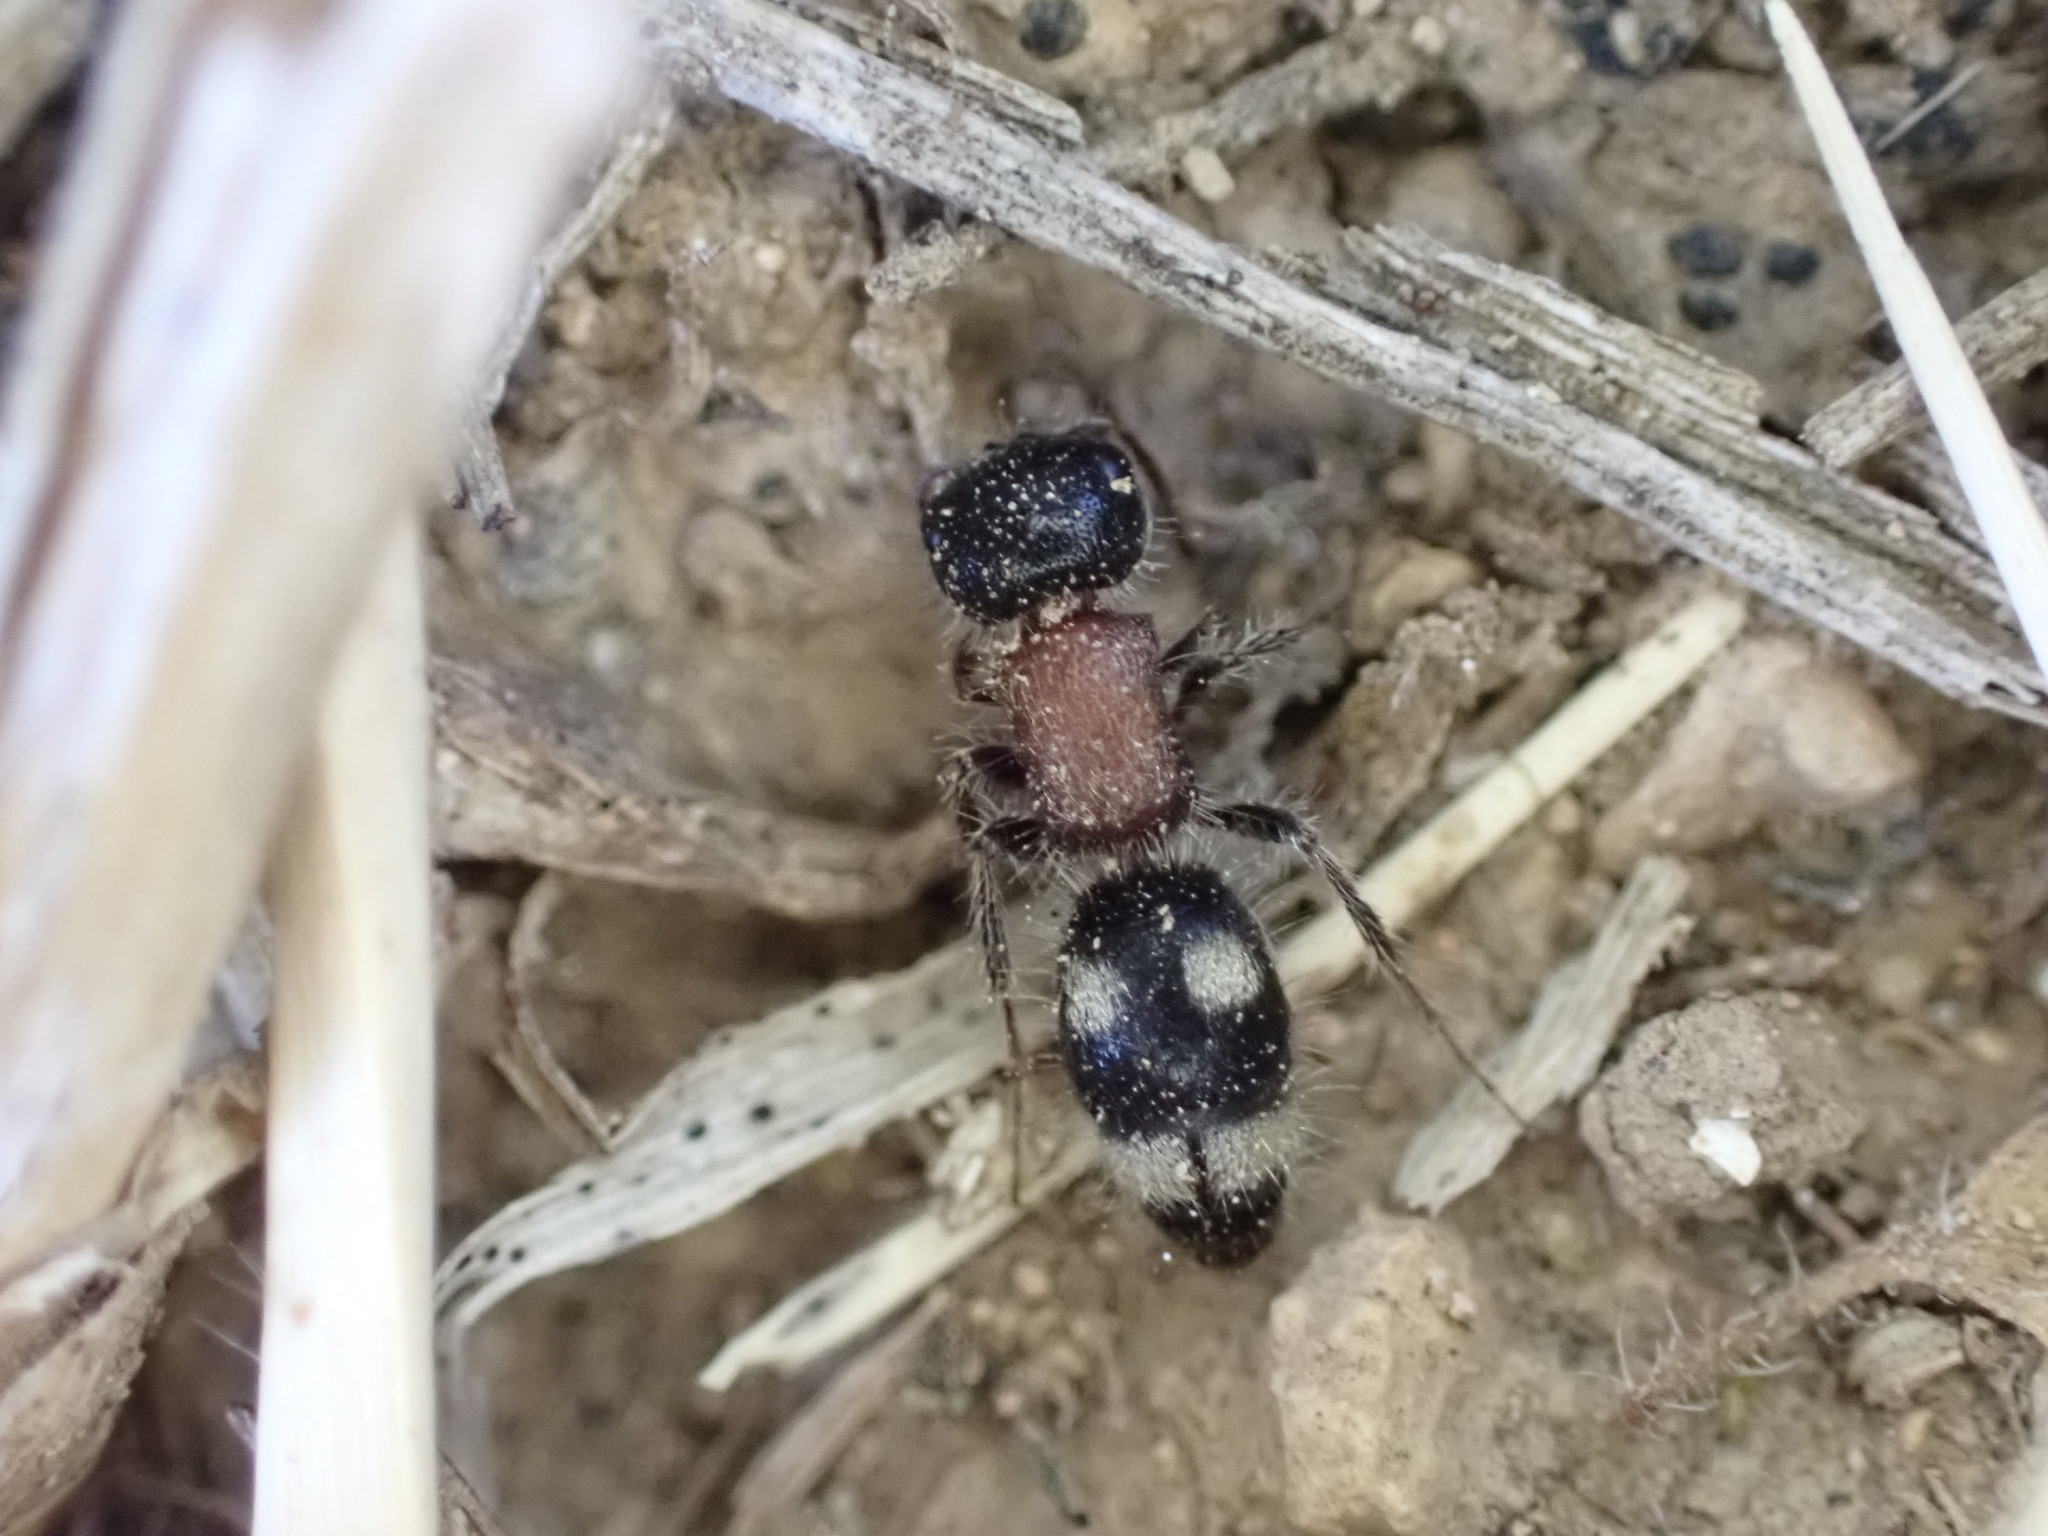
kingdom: Animalia
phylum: Arthropoda
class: Insecta
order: Hymenoptera
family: Mutillidae
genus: Blakeius
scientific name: Blakeius bipunctatus
